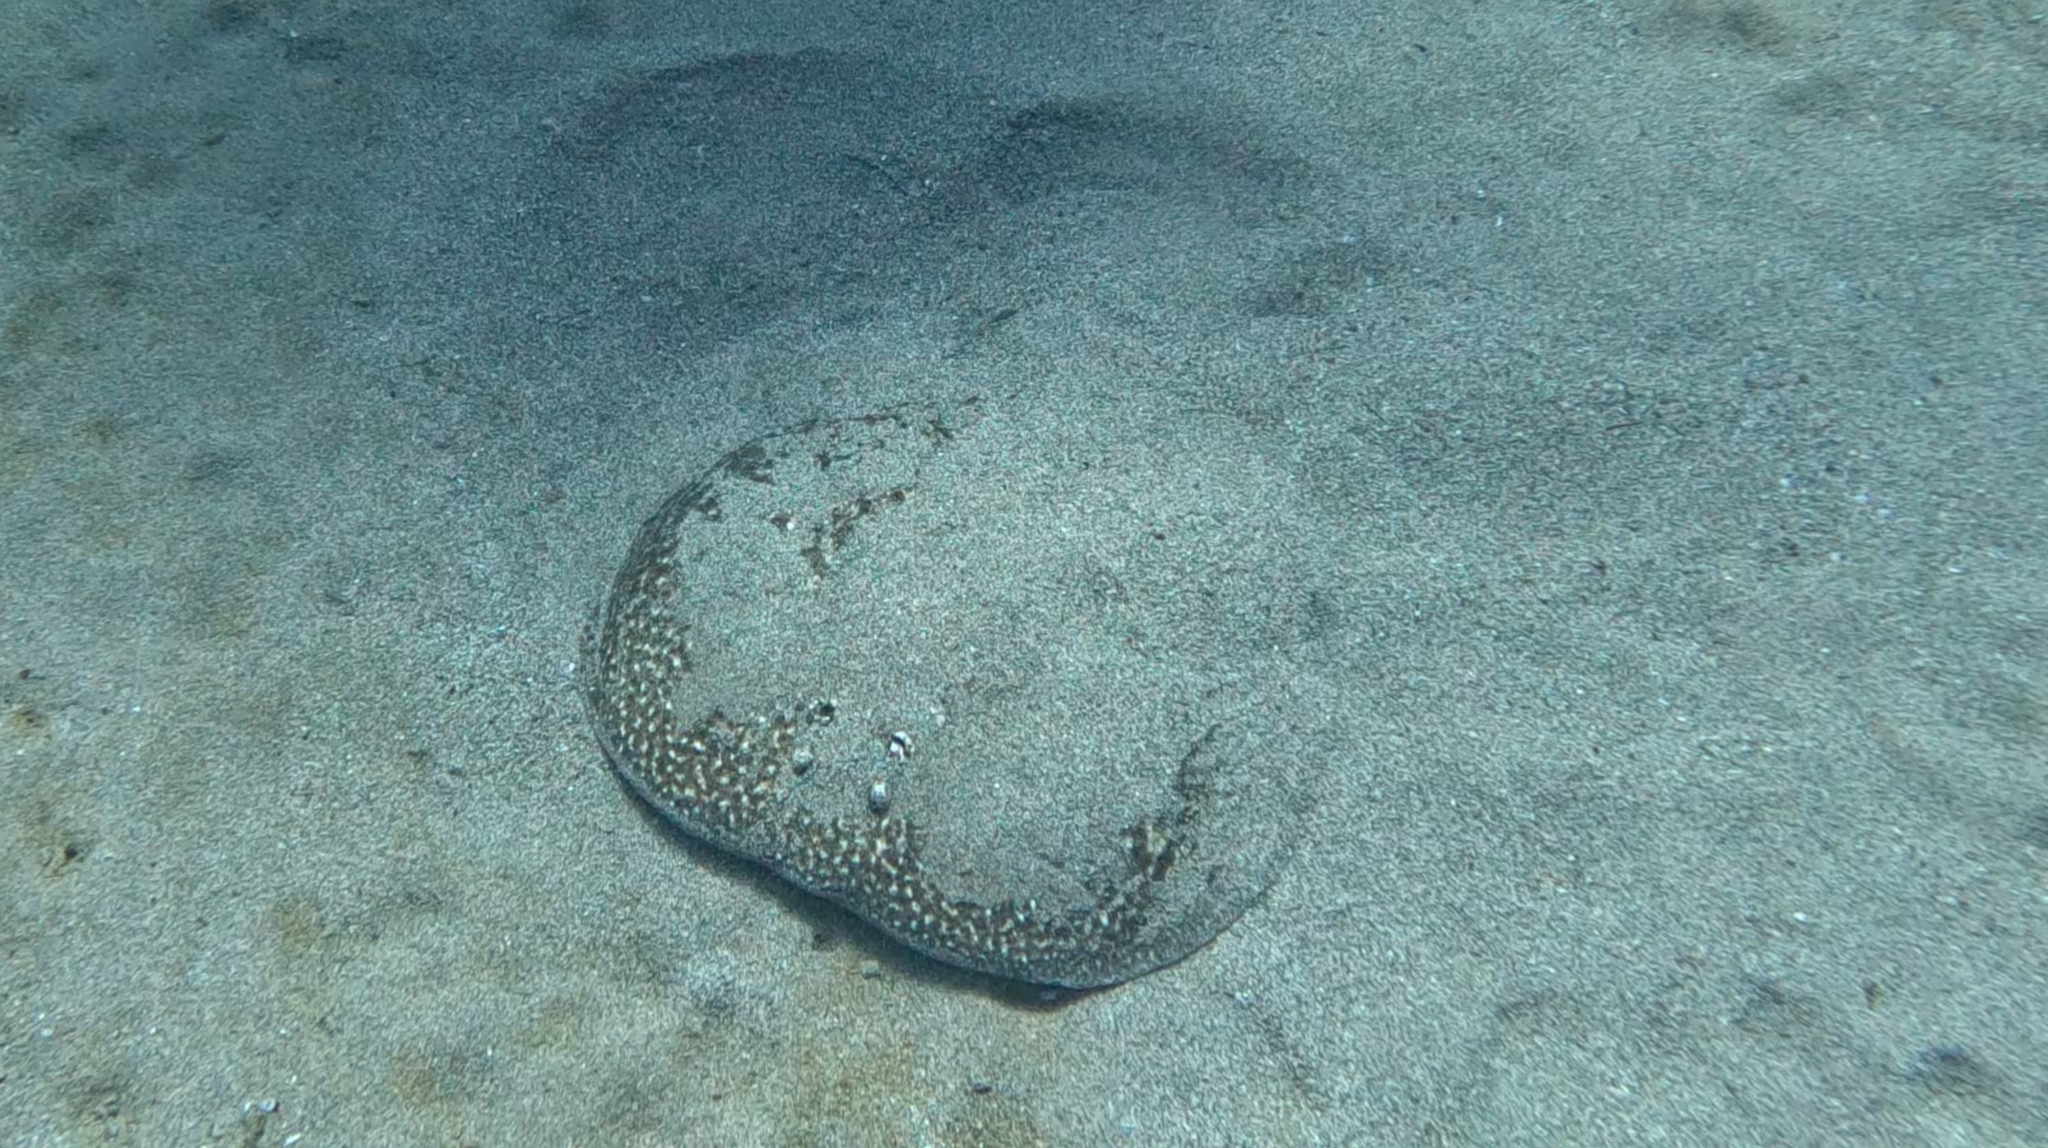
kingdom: Animalia
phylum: Chordata
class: Elasmobranchii
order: Torpediniformes
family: Torpedinidae
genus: Torpedo
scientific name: Torpedo marmorata
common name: Marbled electric ray
